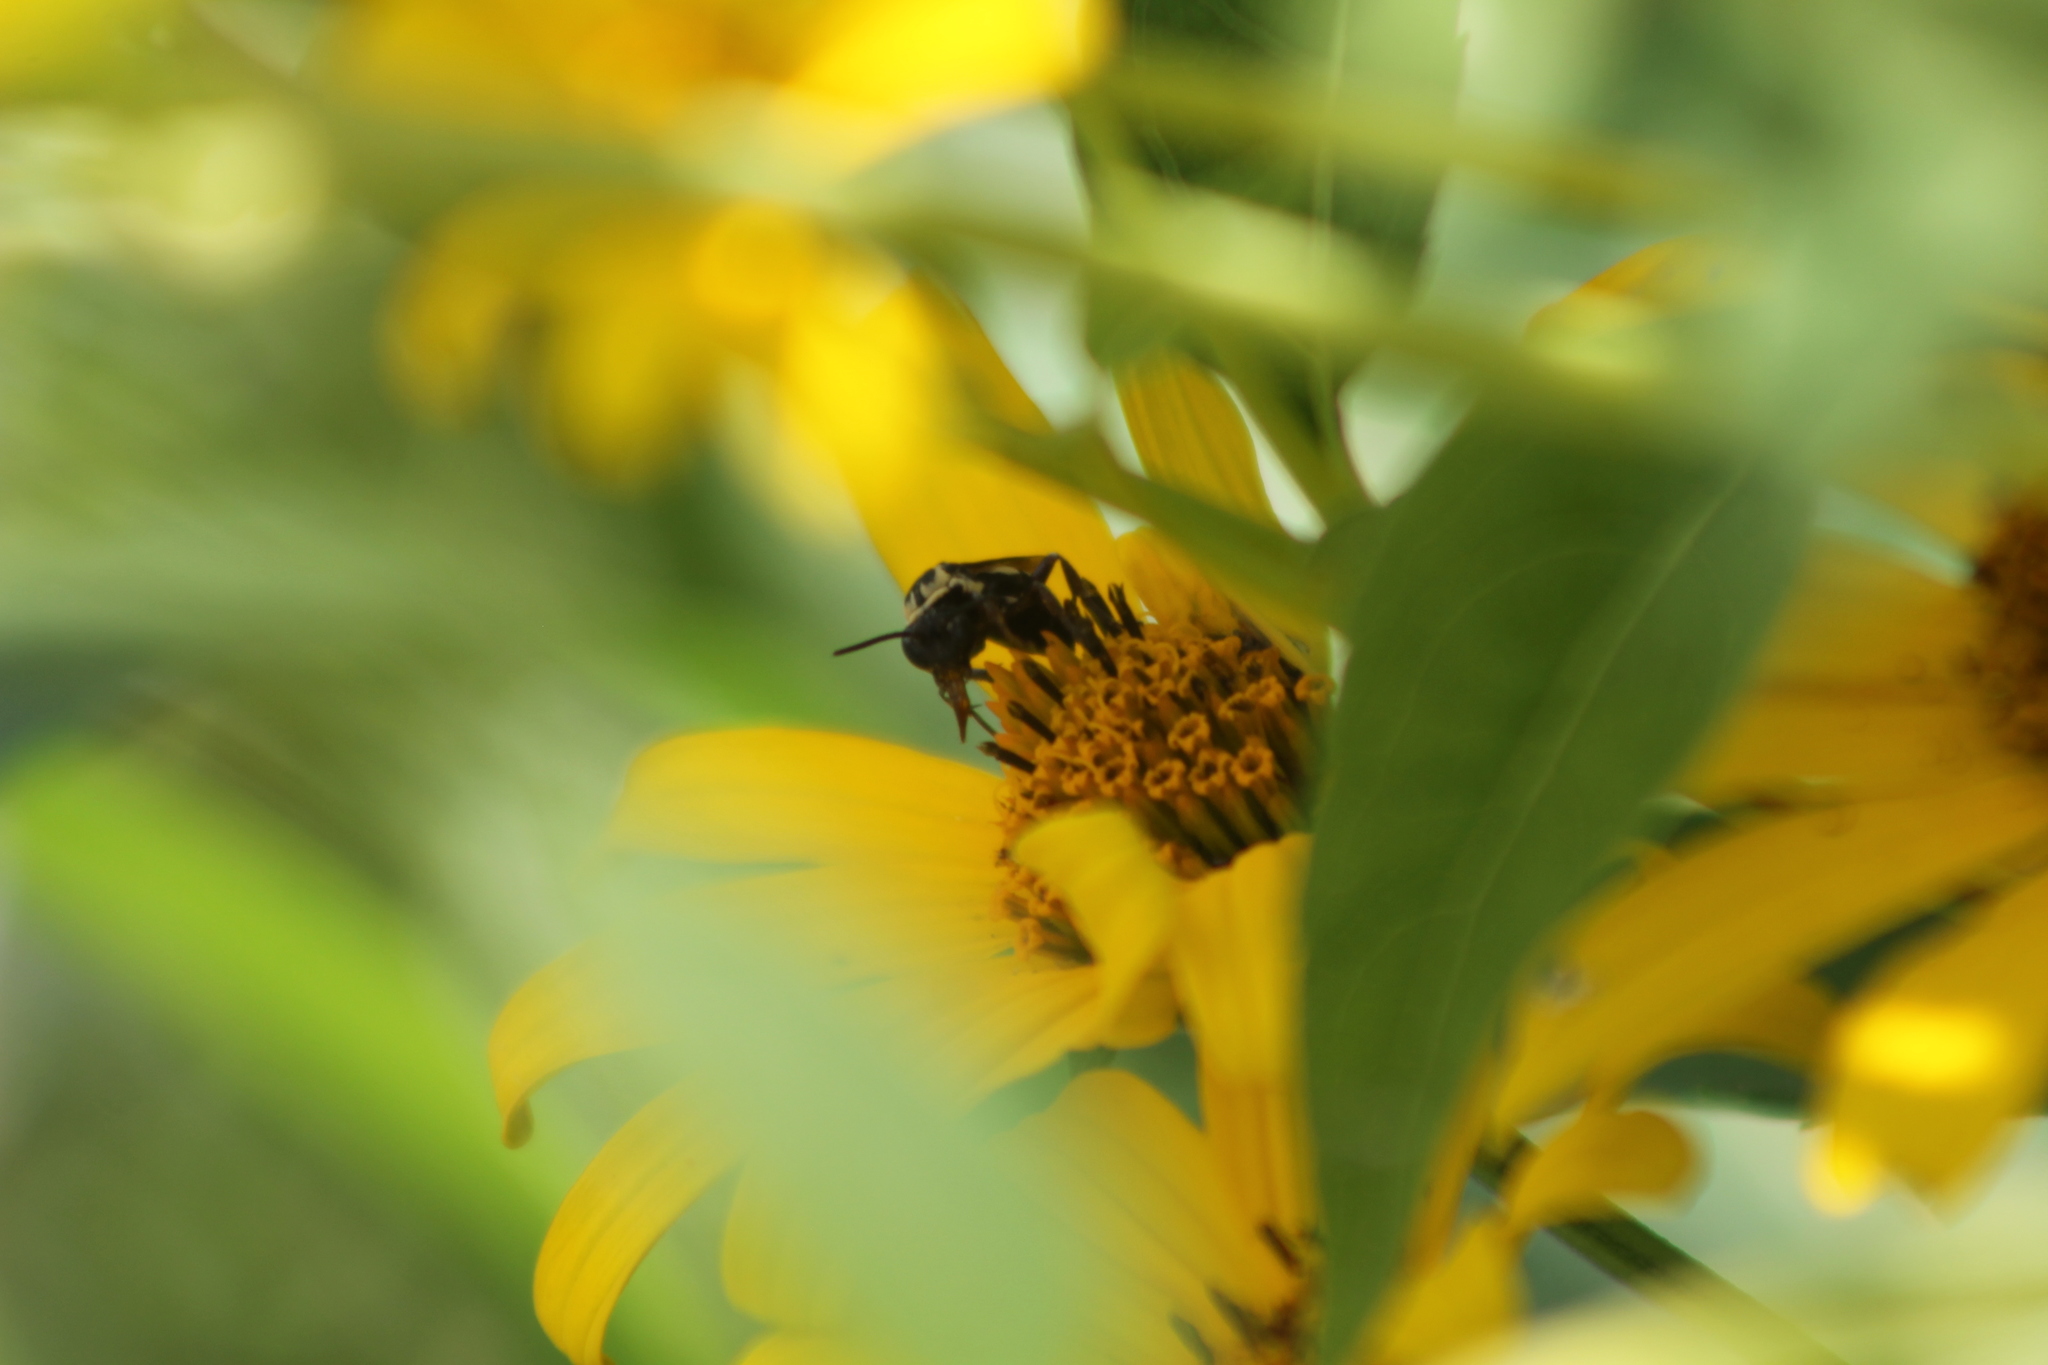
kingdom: Animalia
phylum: Arthropoda
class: Insecta
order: Hymenoptera
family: Apidae
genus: Triepeolus
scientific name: Triepeolus remigatus
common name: Squash longhorn-cuckoo
